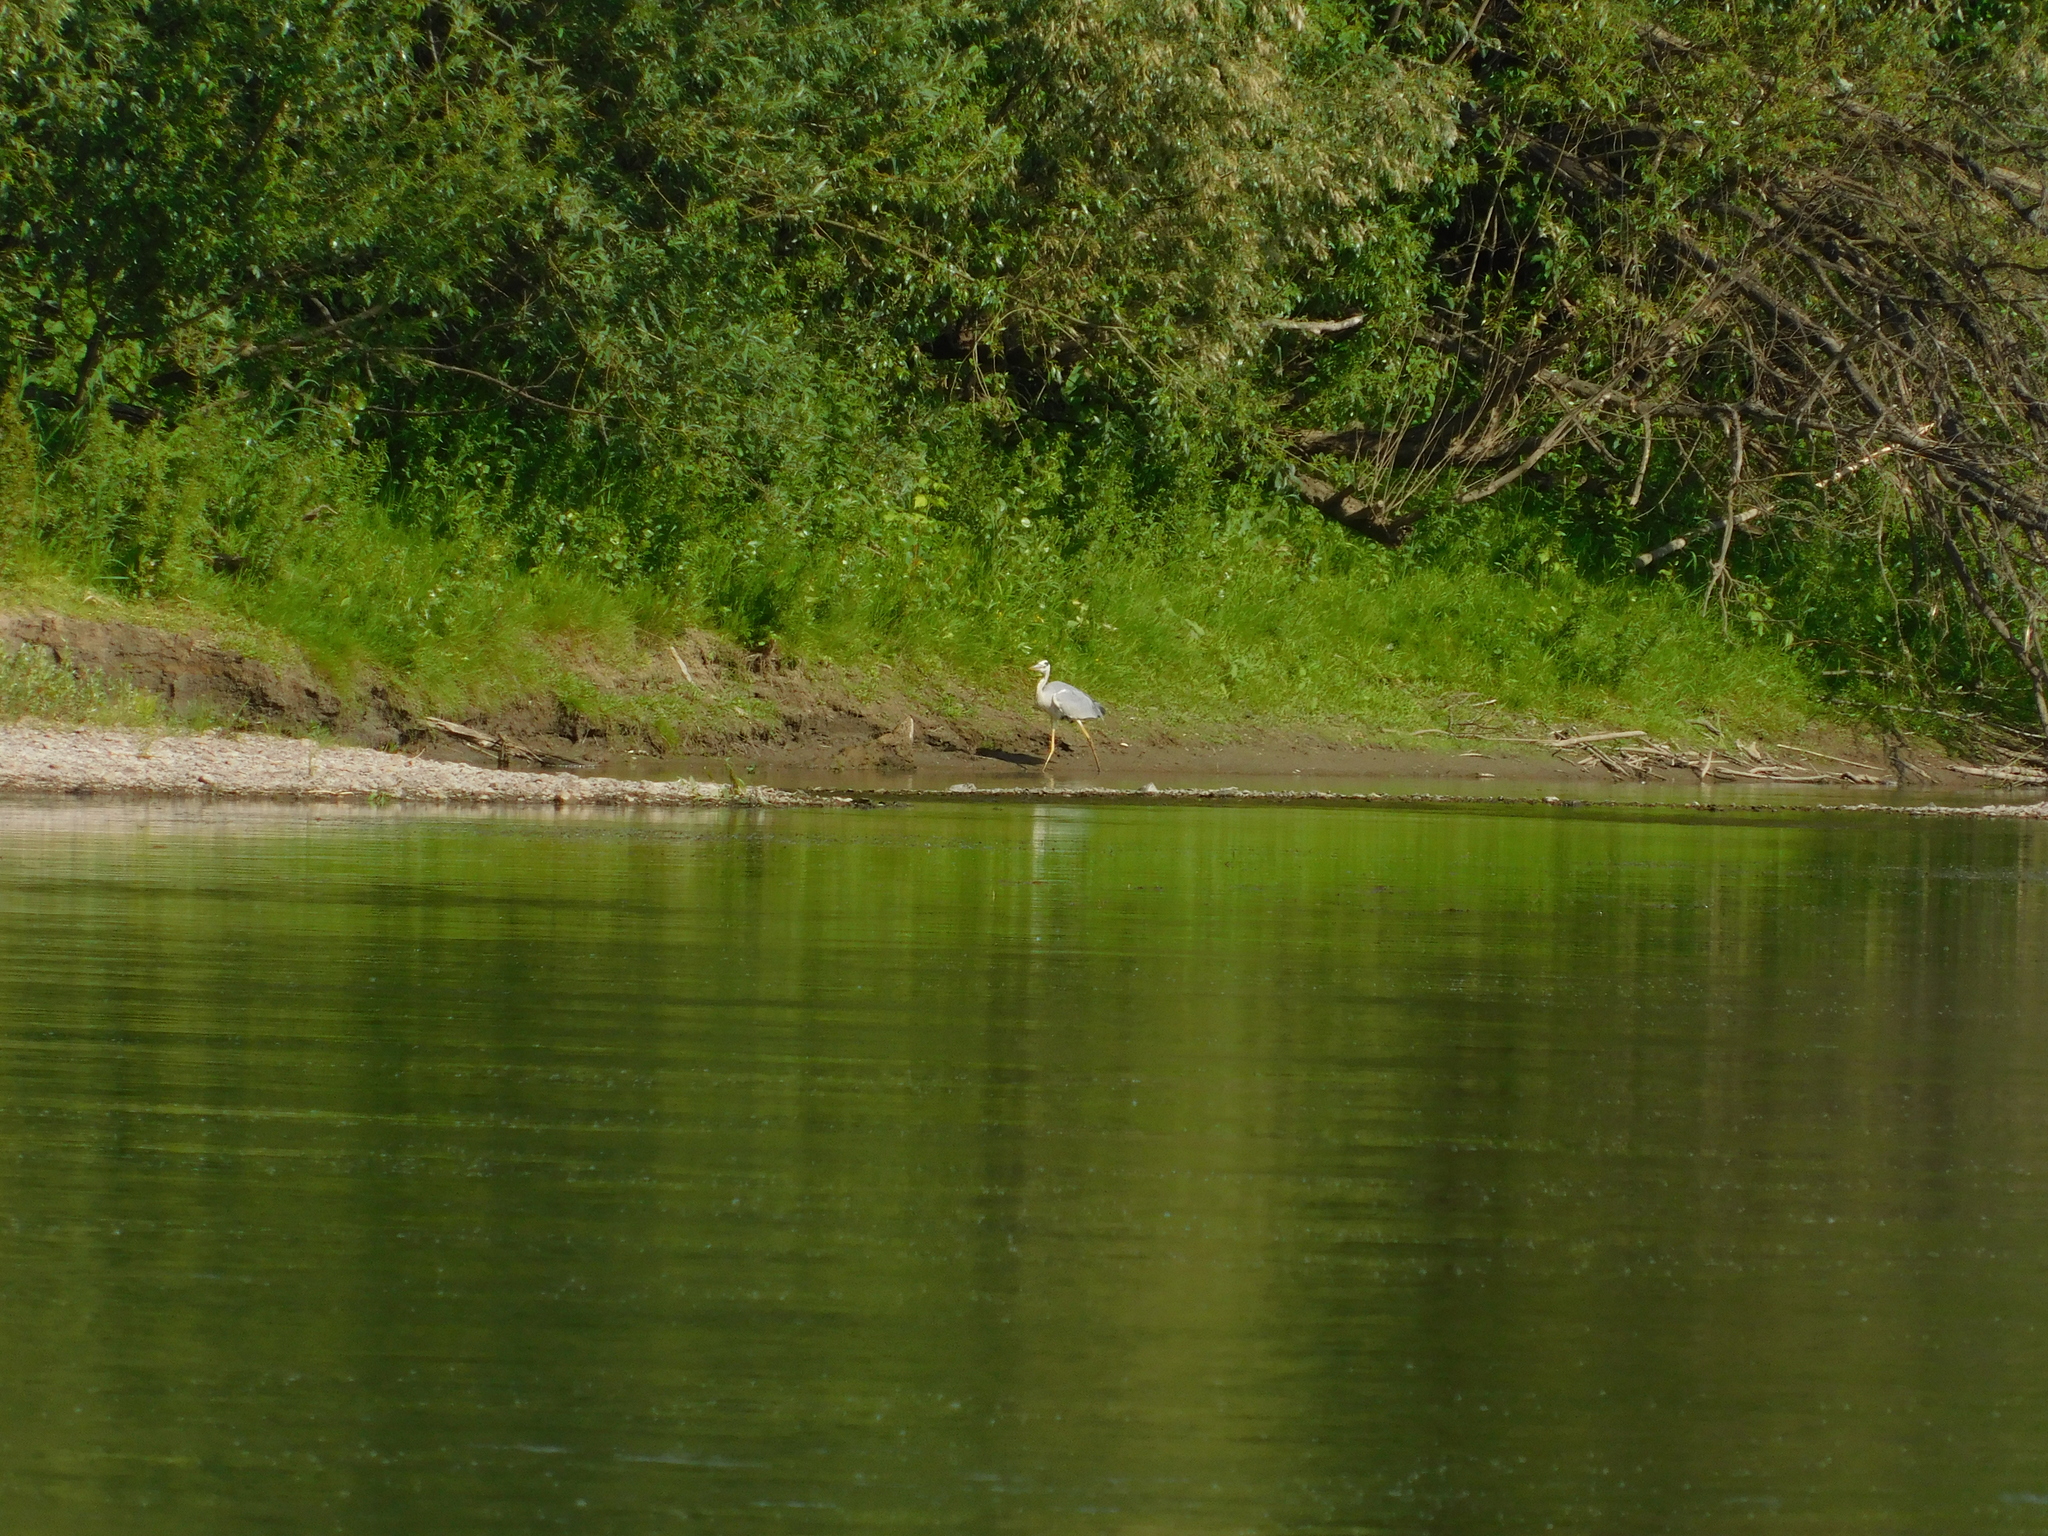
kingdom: Animalia
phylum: Chordata
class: Aves
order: Pelecaniformes
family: Ardeidae
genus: Ardea
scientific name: Ardea cinerea
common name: Grey heron
